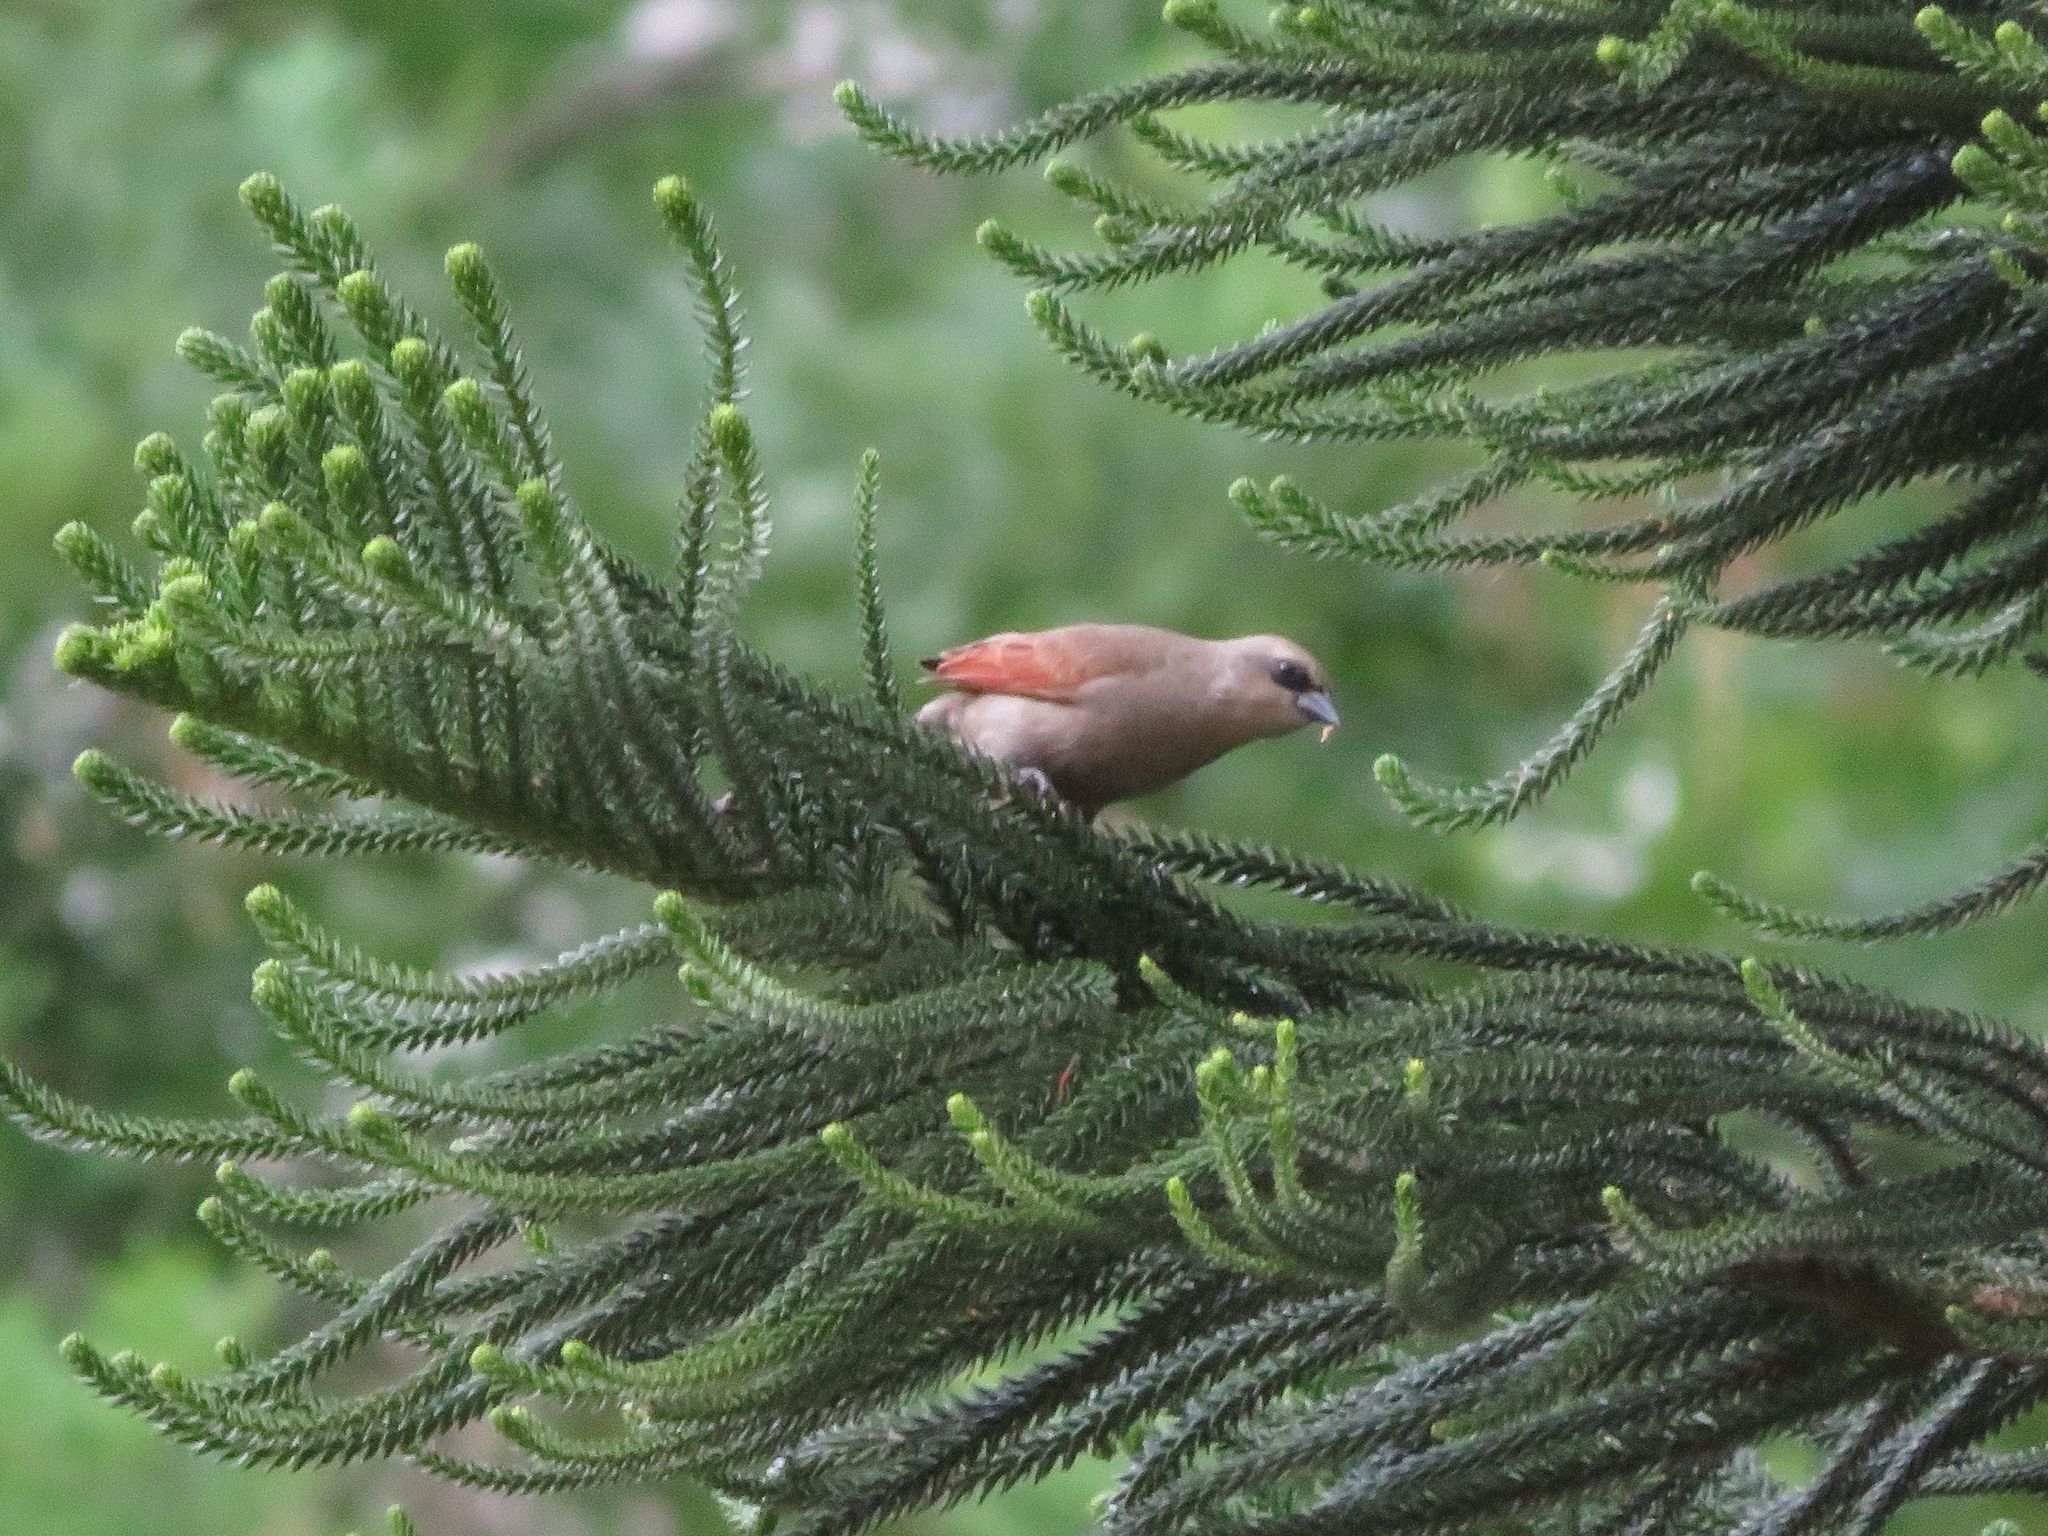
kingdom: Animalia
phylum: Chordata
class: Aves
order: Passeriformes
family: Icteridae
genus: Agelaioides
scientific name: Agelaioides badius
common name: Baywing
